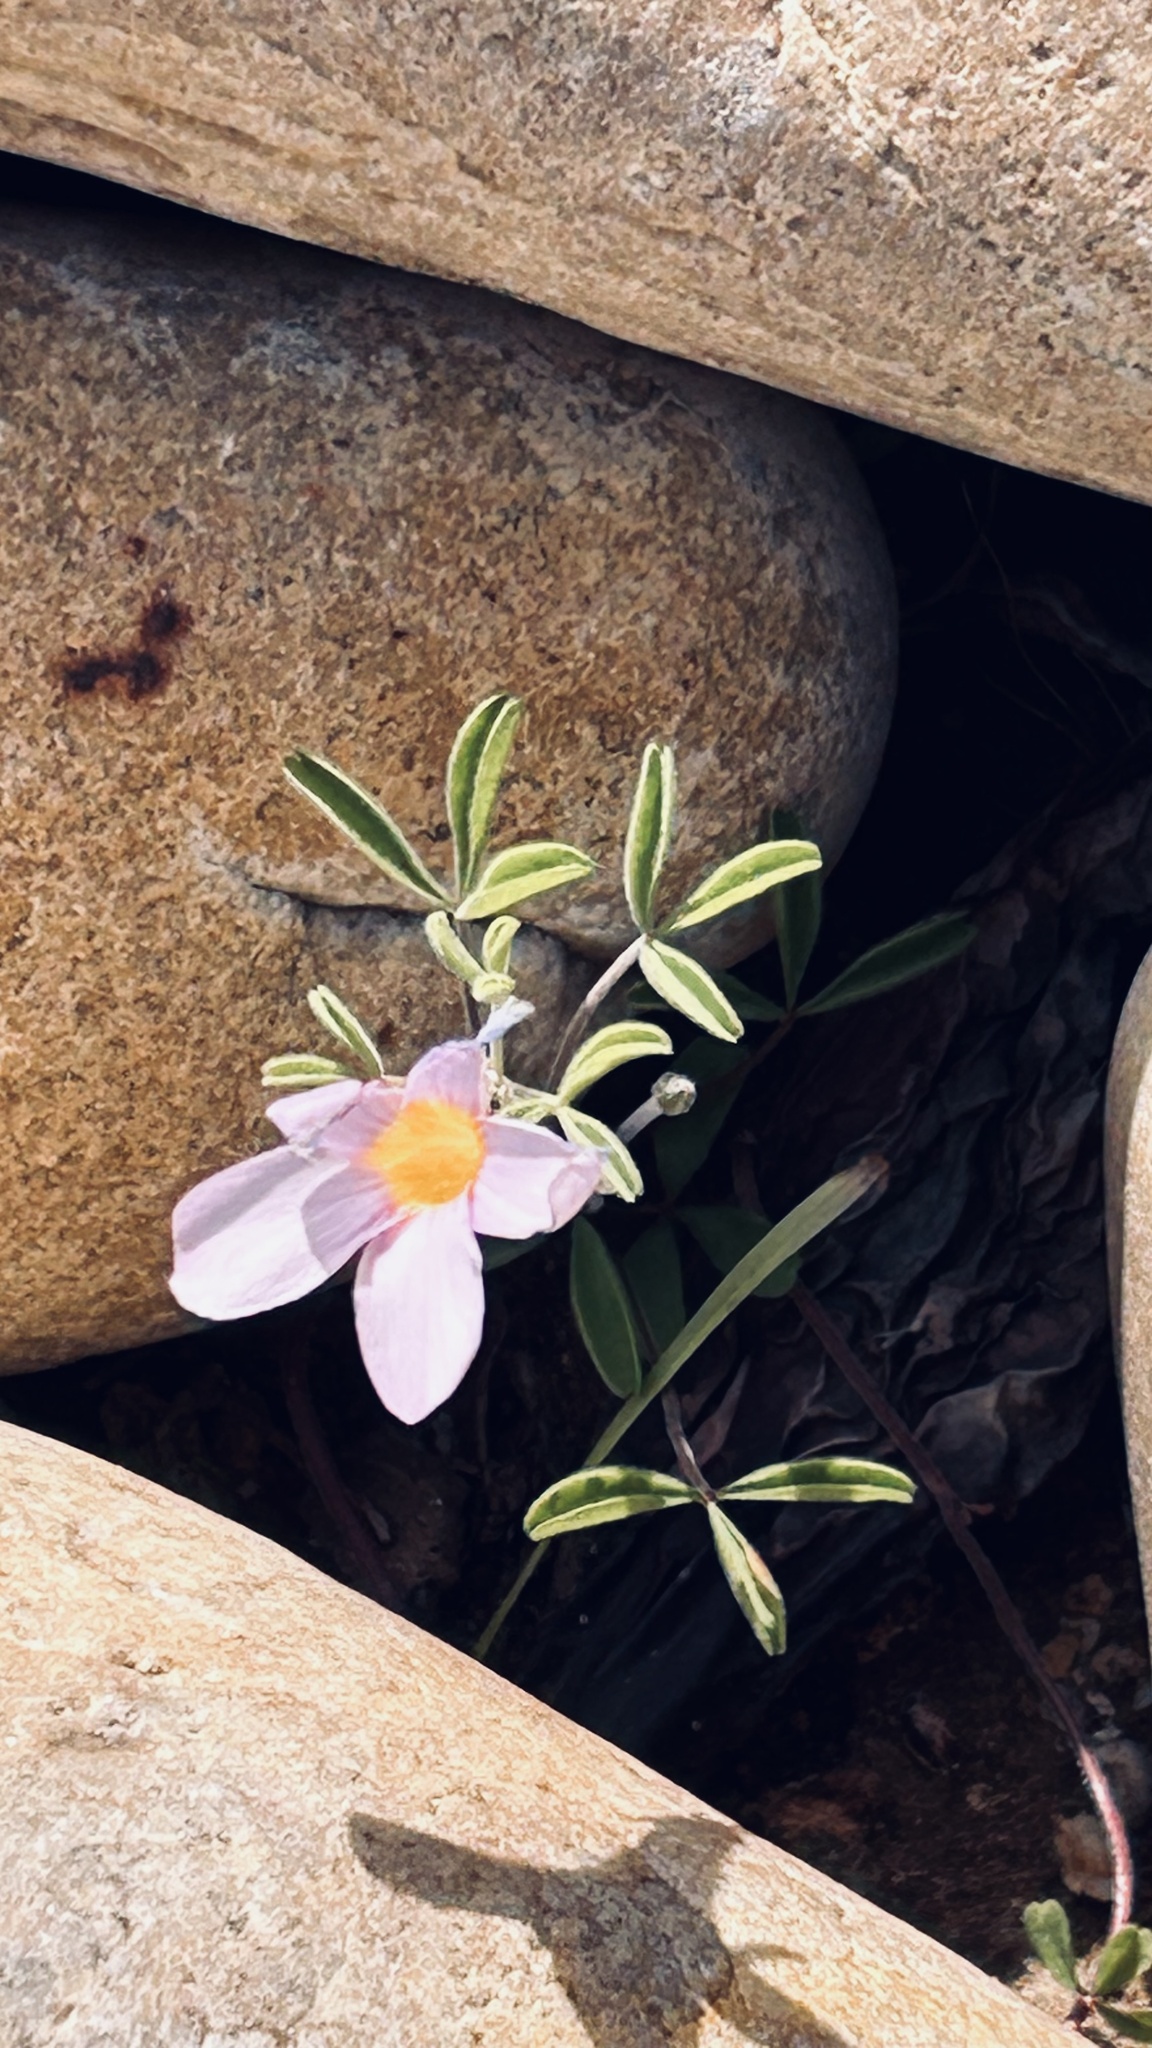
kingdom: Plantae
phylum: Tracheophyta
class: Magnoliopsida
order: Oxalidales
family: Oxalidaceae
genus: Oxalis
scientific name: Oxalis ciliaris
